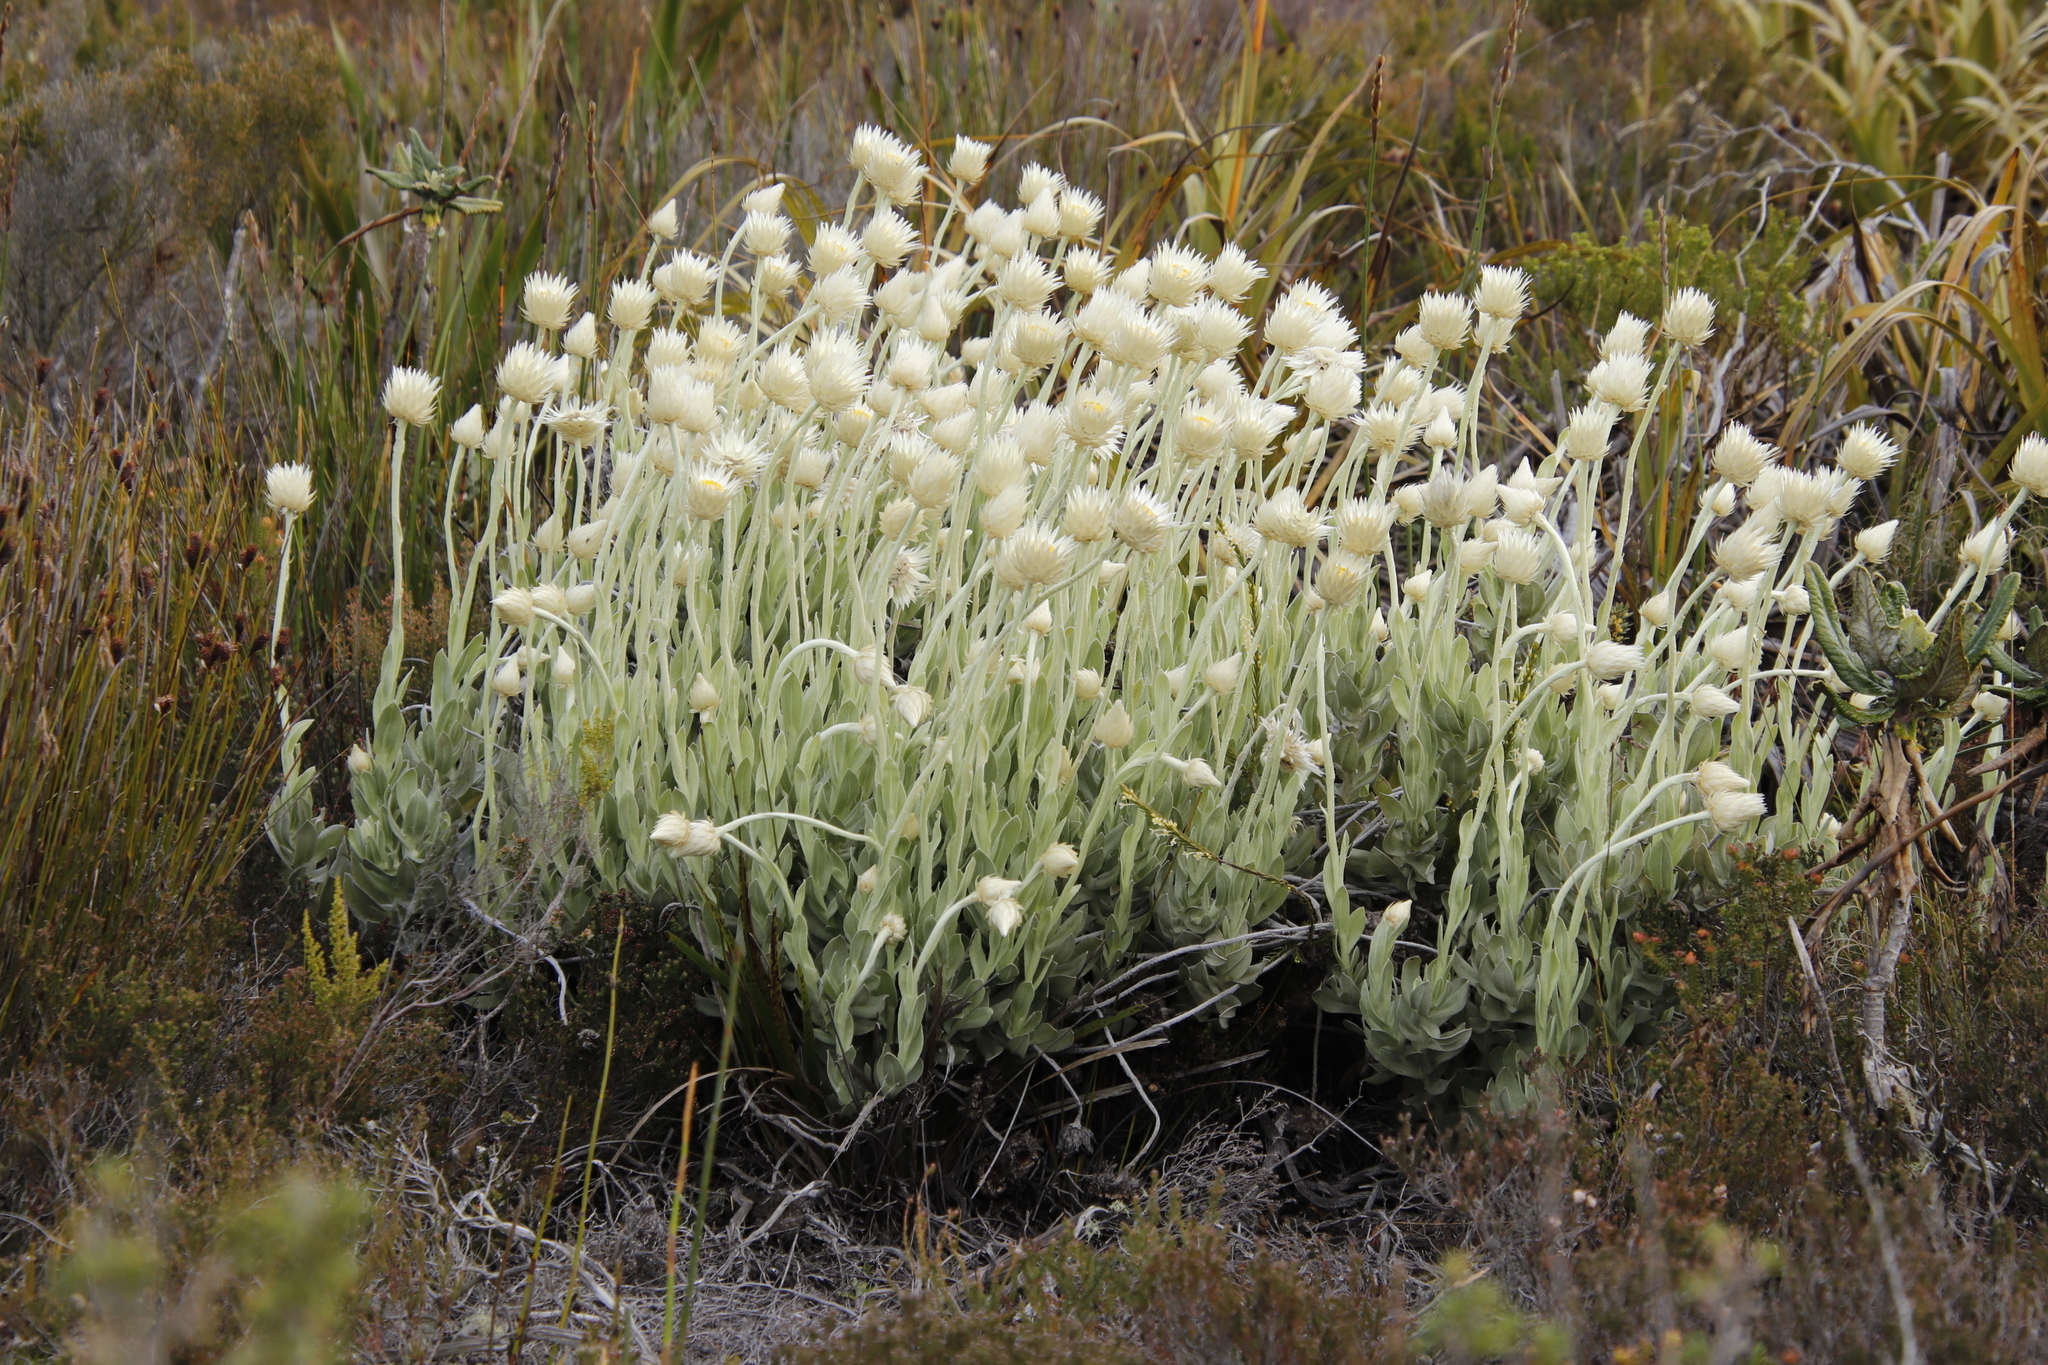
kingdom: Plantae
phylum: Tracheophyta
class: Magnoliopsida
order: Asterales
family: Asteraceae
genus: Syncarpha
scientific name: Syncarpha speciosissima
